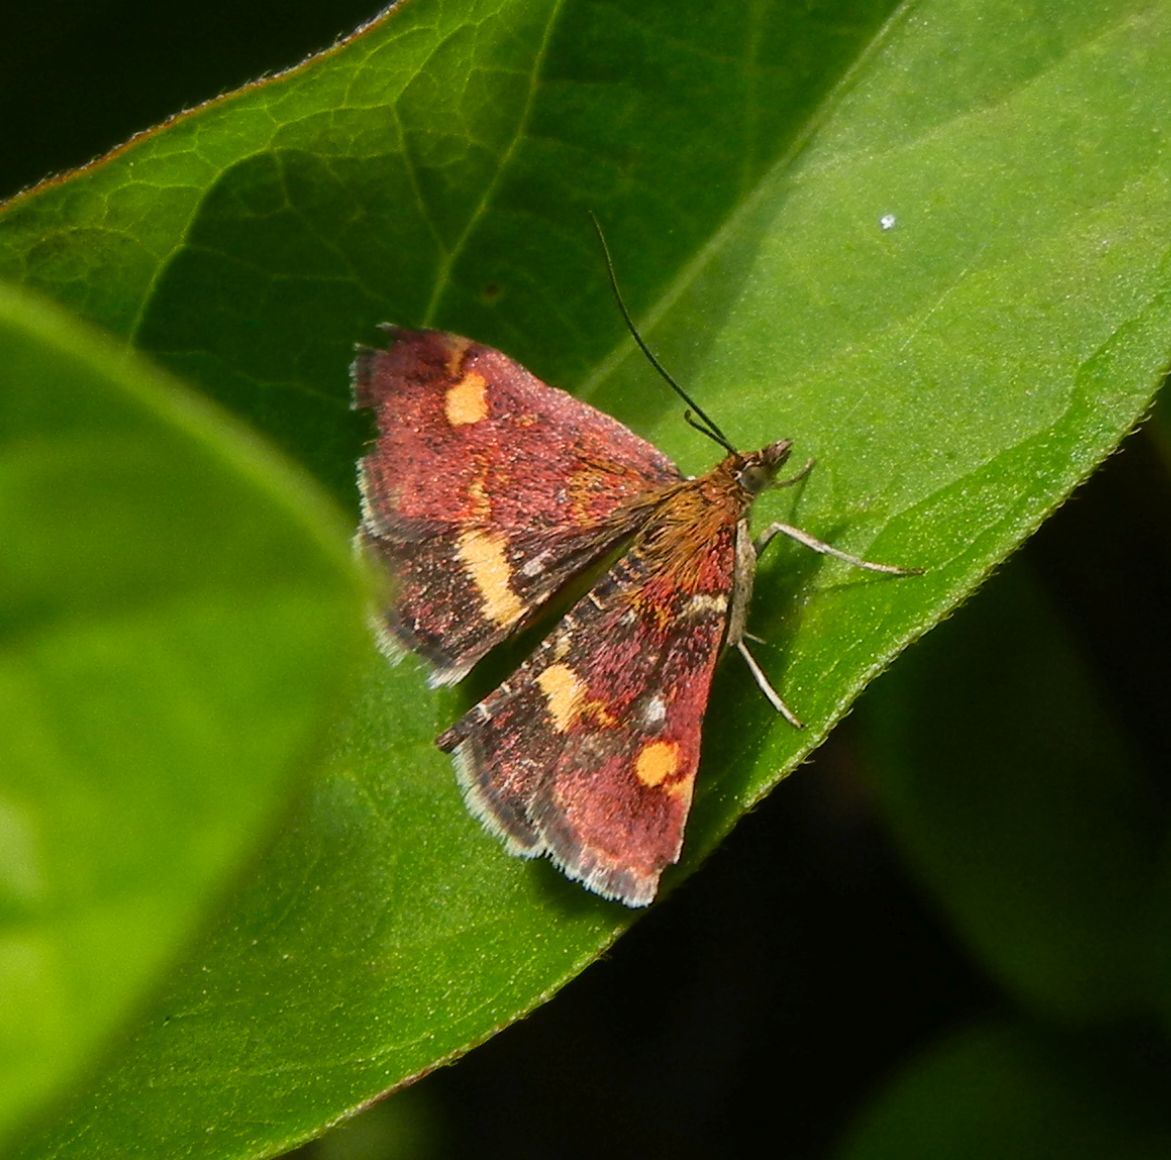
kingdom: Animalia
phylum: Arthropoda
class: Insecta
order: Lepidoptera
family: Crambidae
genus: Pyrausta
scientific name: Pyrausta aurata
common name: Small purple & gold
